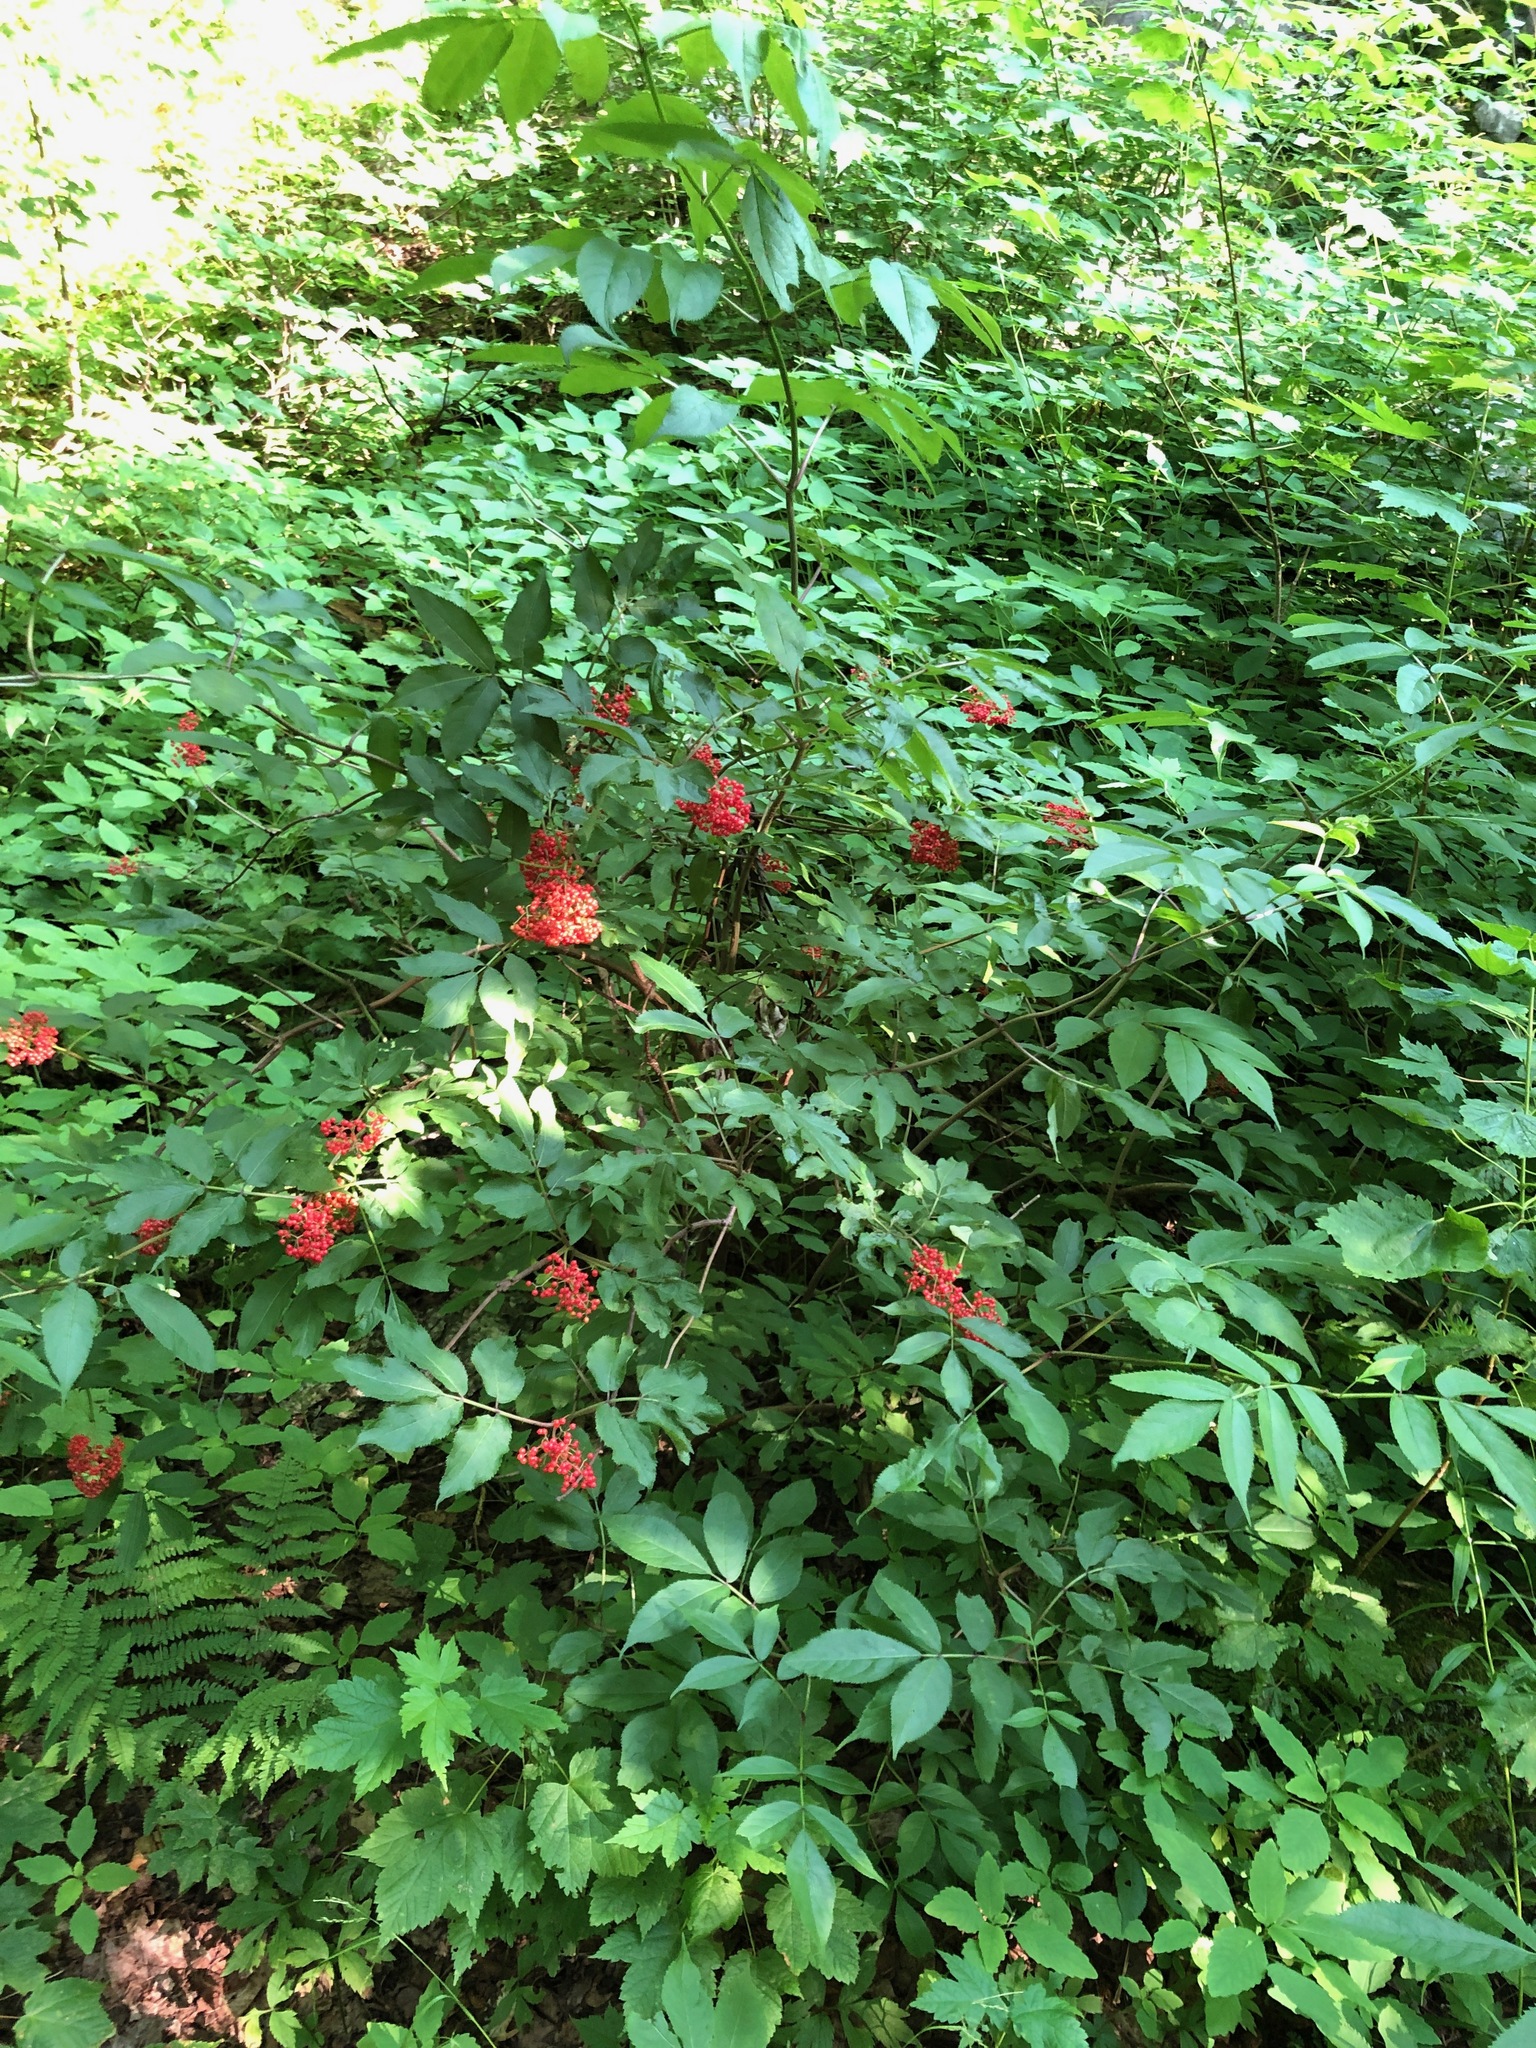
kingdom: Plantae
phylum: Tracheophyta
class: Magnoliopsida
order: Dipsacales
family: Viburnaceae
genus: Sambucus
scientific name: Sambucus racemosa
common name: Red-berried elder
